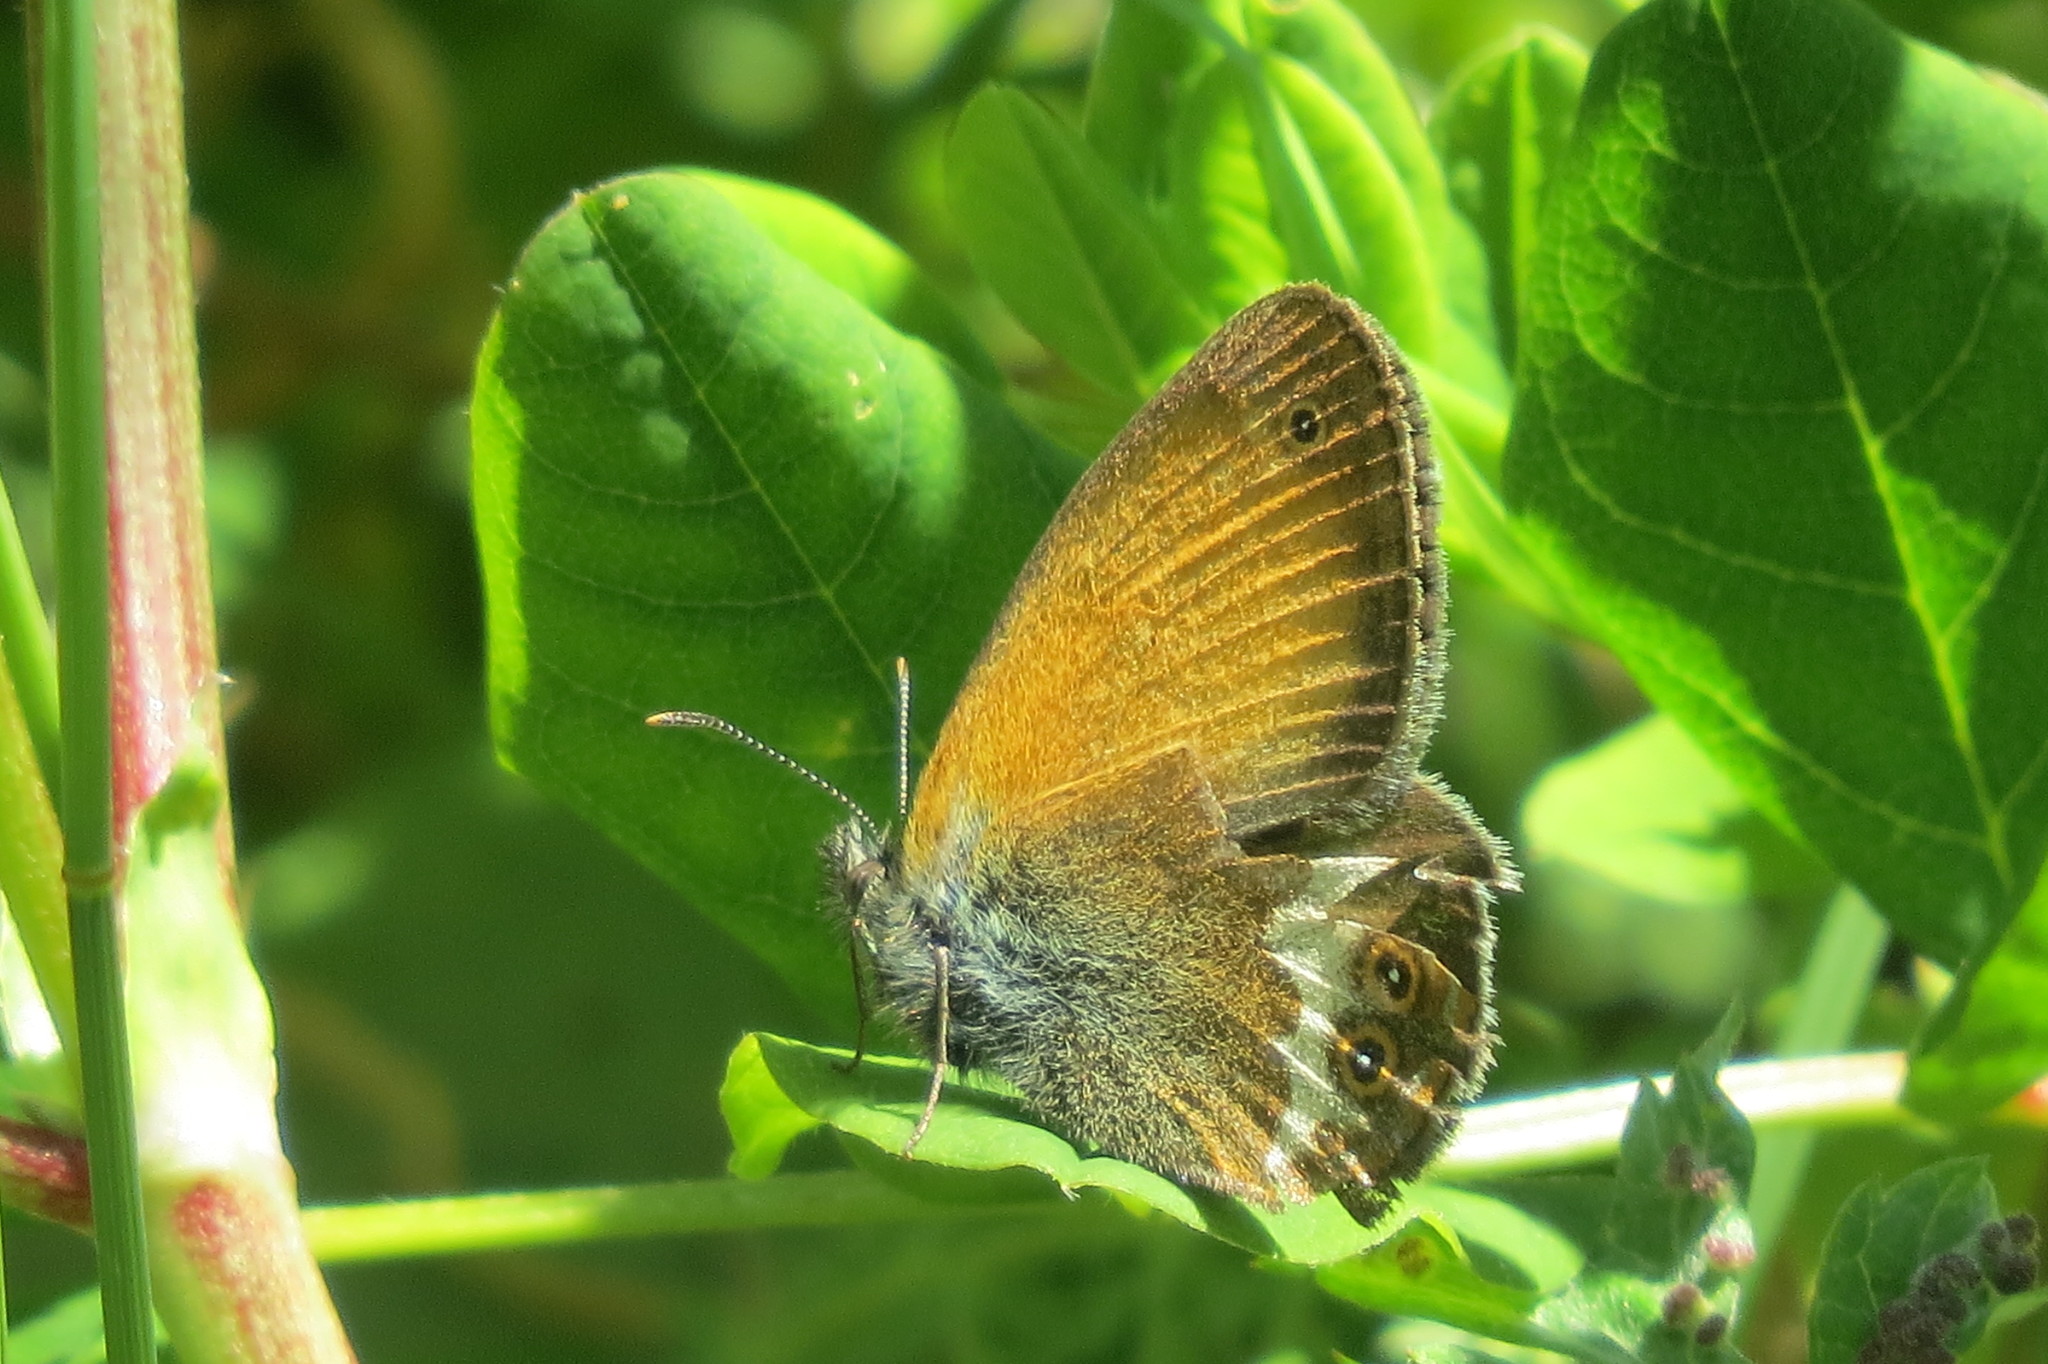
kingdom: Animalia
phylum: Arthropoda
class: Insecta
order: Lepidoptera
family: Nymphalidae
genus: Coenonympha
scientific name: Coenonympha arcania
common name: Pearly heath
